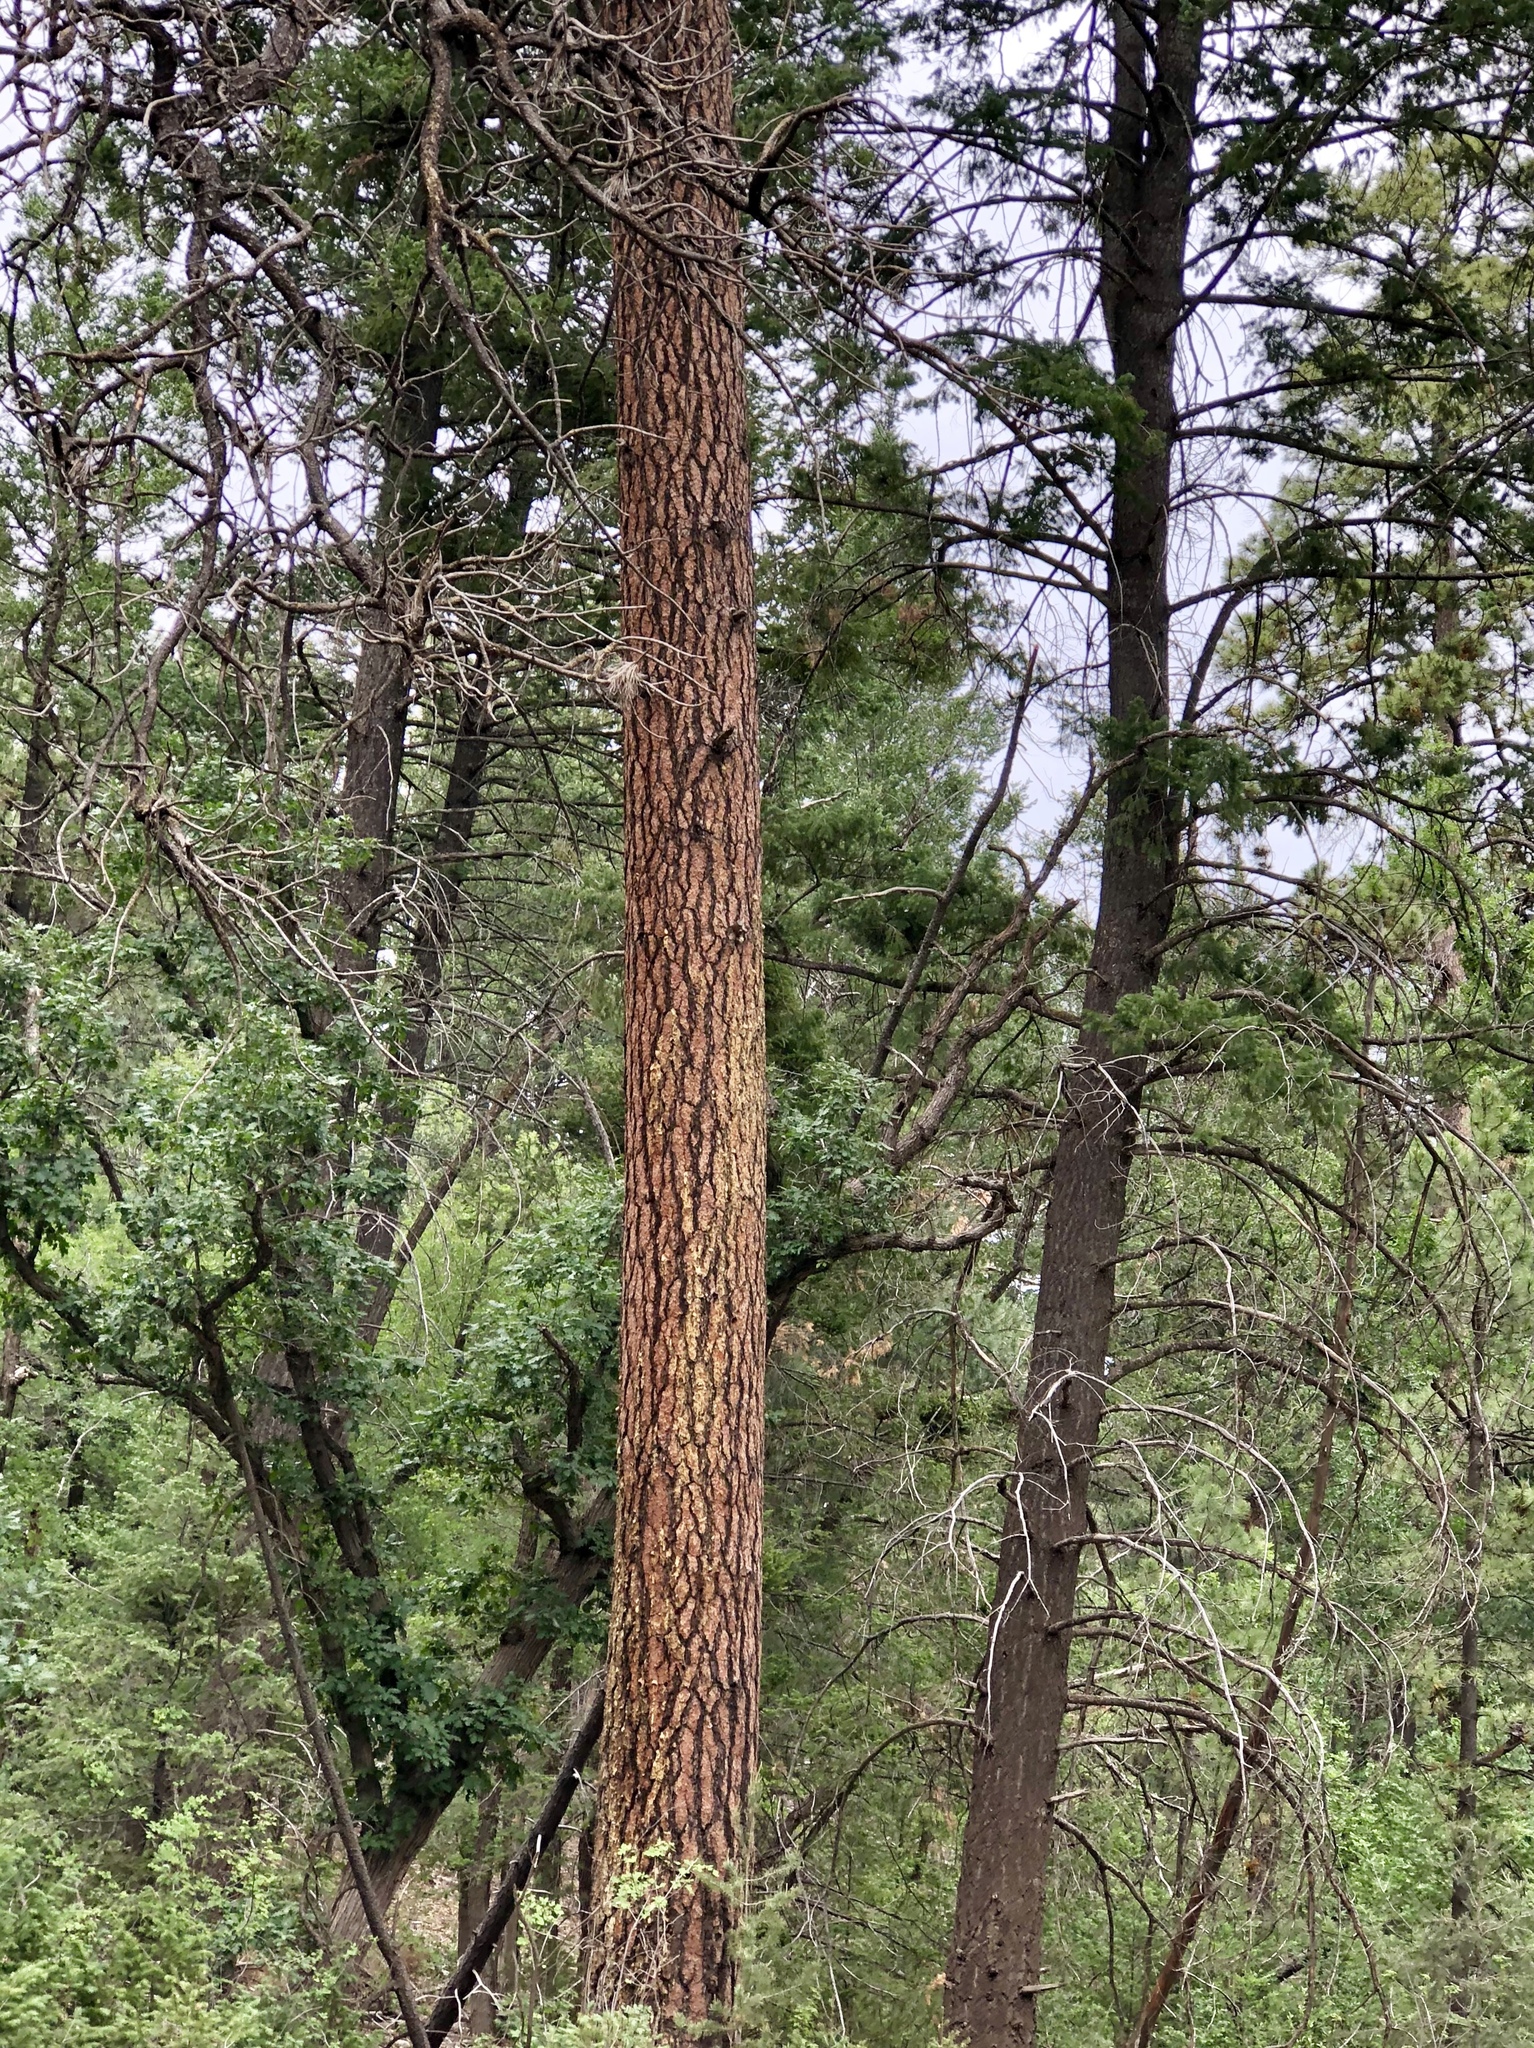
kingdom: Plantae
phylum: Tracheophyta
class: Pinopsida
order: Pinales
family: Pinaceae
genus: Pinus
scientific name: Pinus ponderosa
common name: Western yellow-pine
